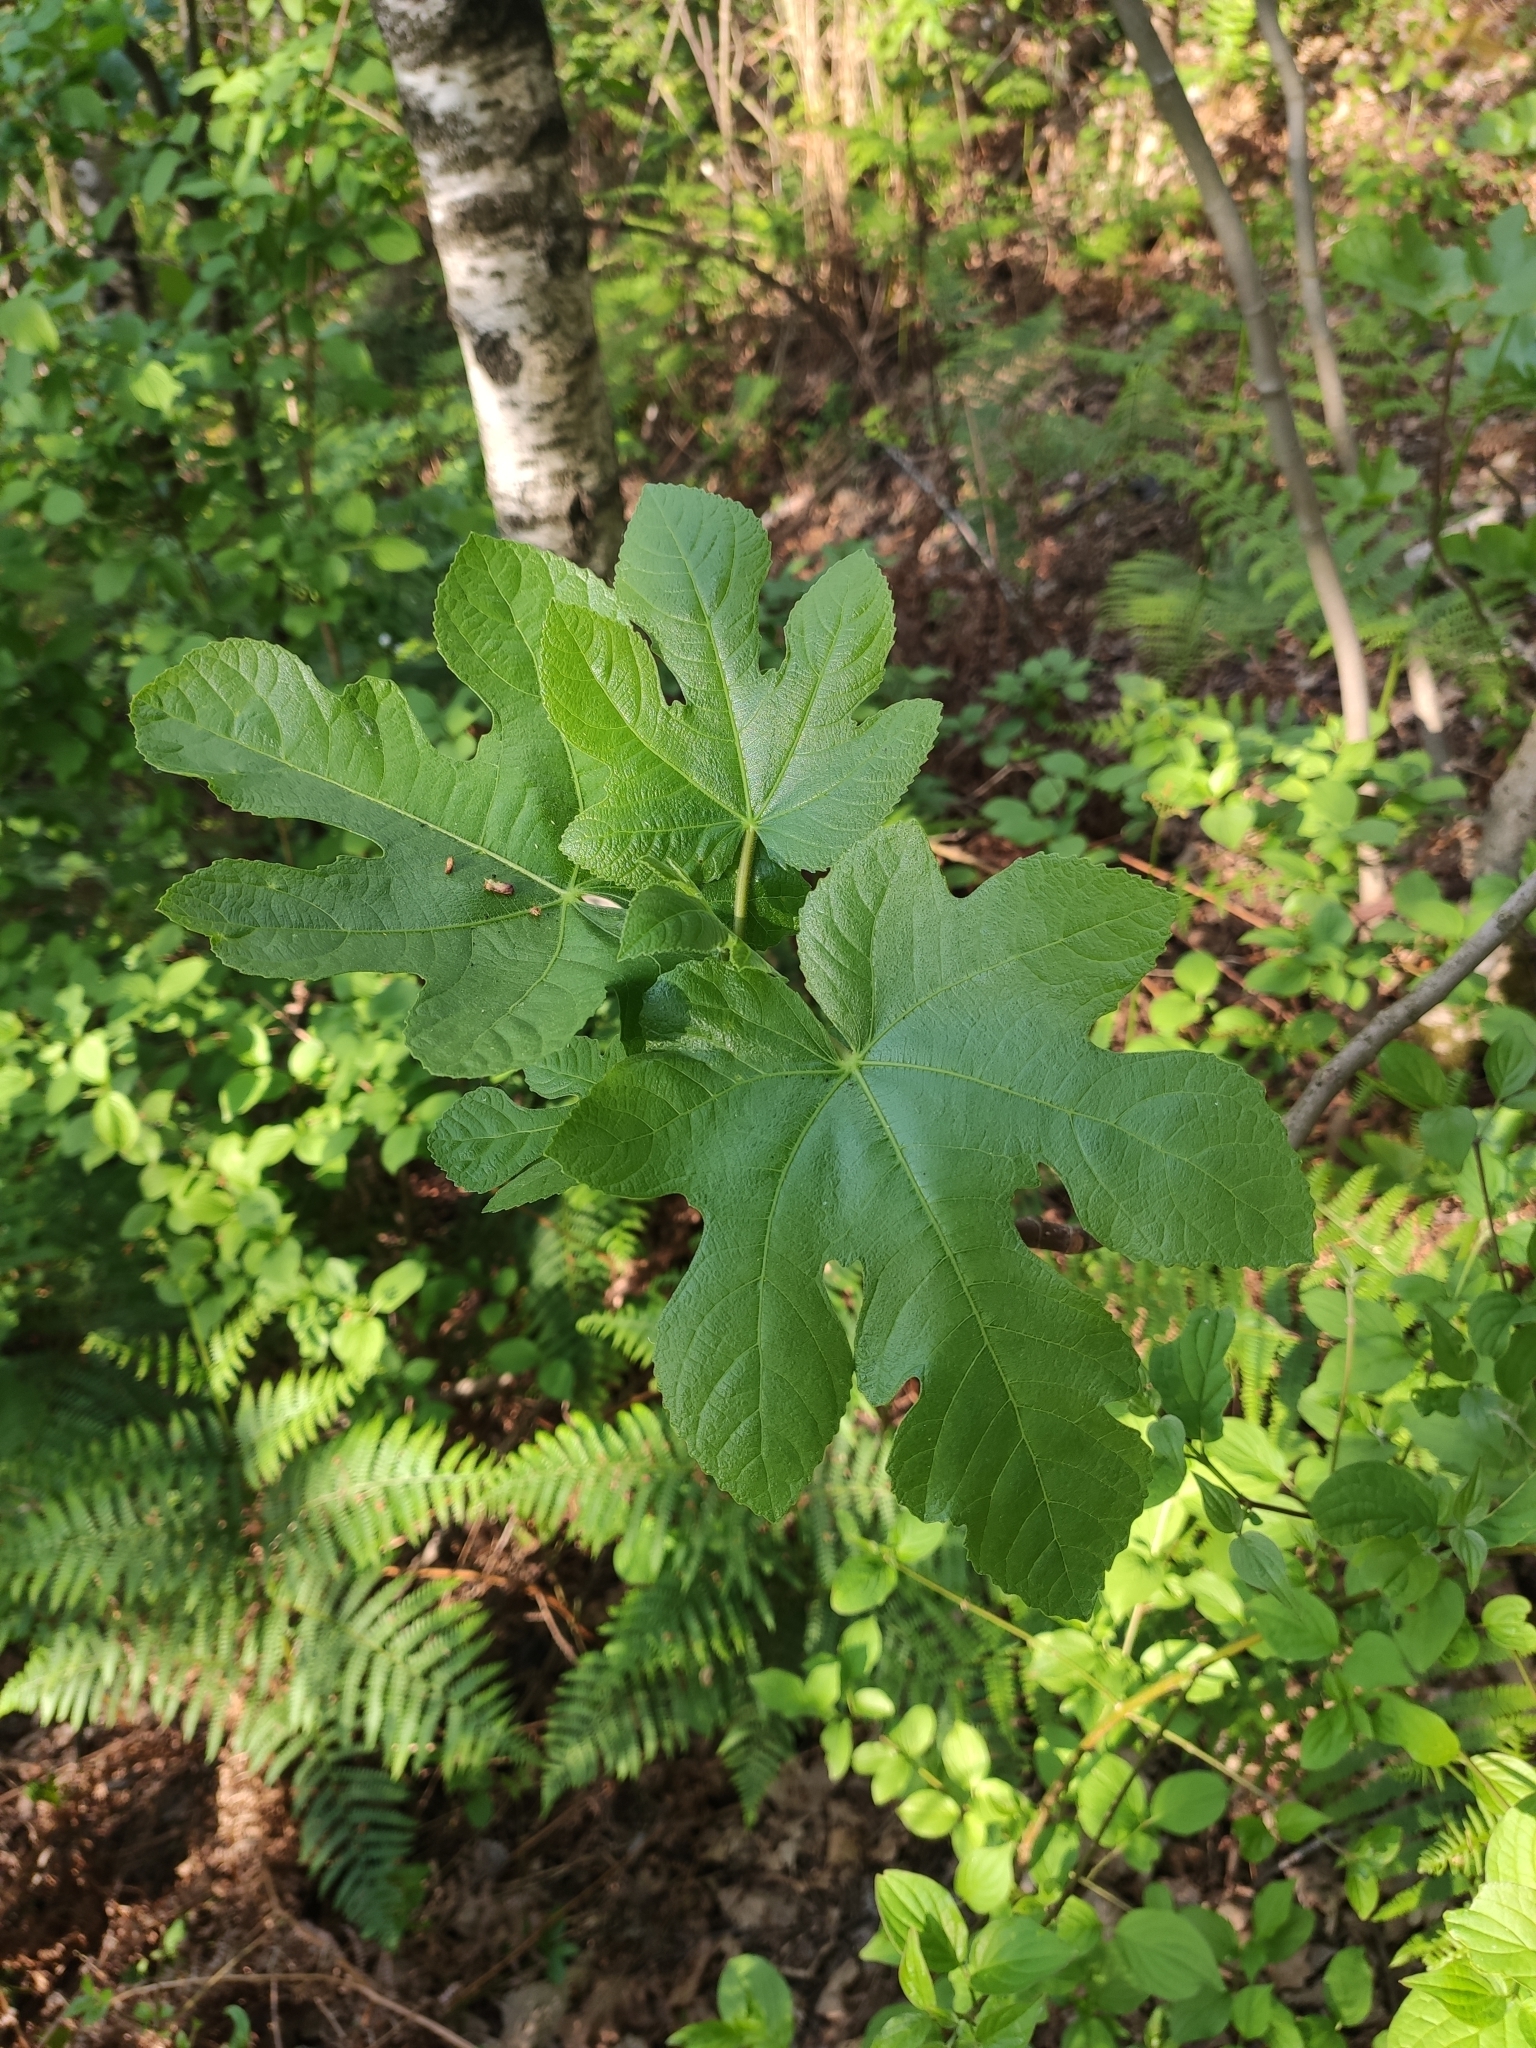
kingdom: Plantae
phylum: Tracheophyta
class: Magnoliopsida
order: Rosales
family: Moraceae
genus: Ficus
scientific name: Ficus carica
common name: Fig
